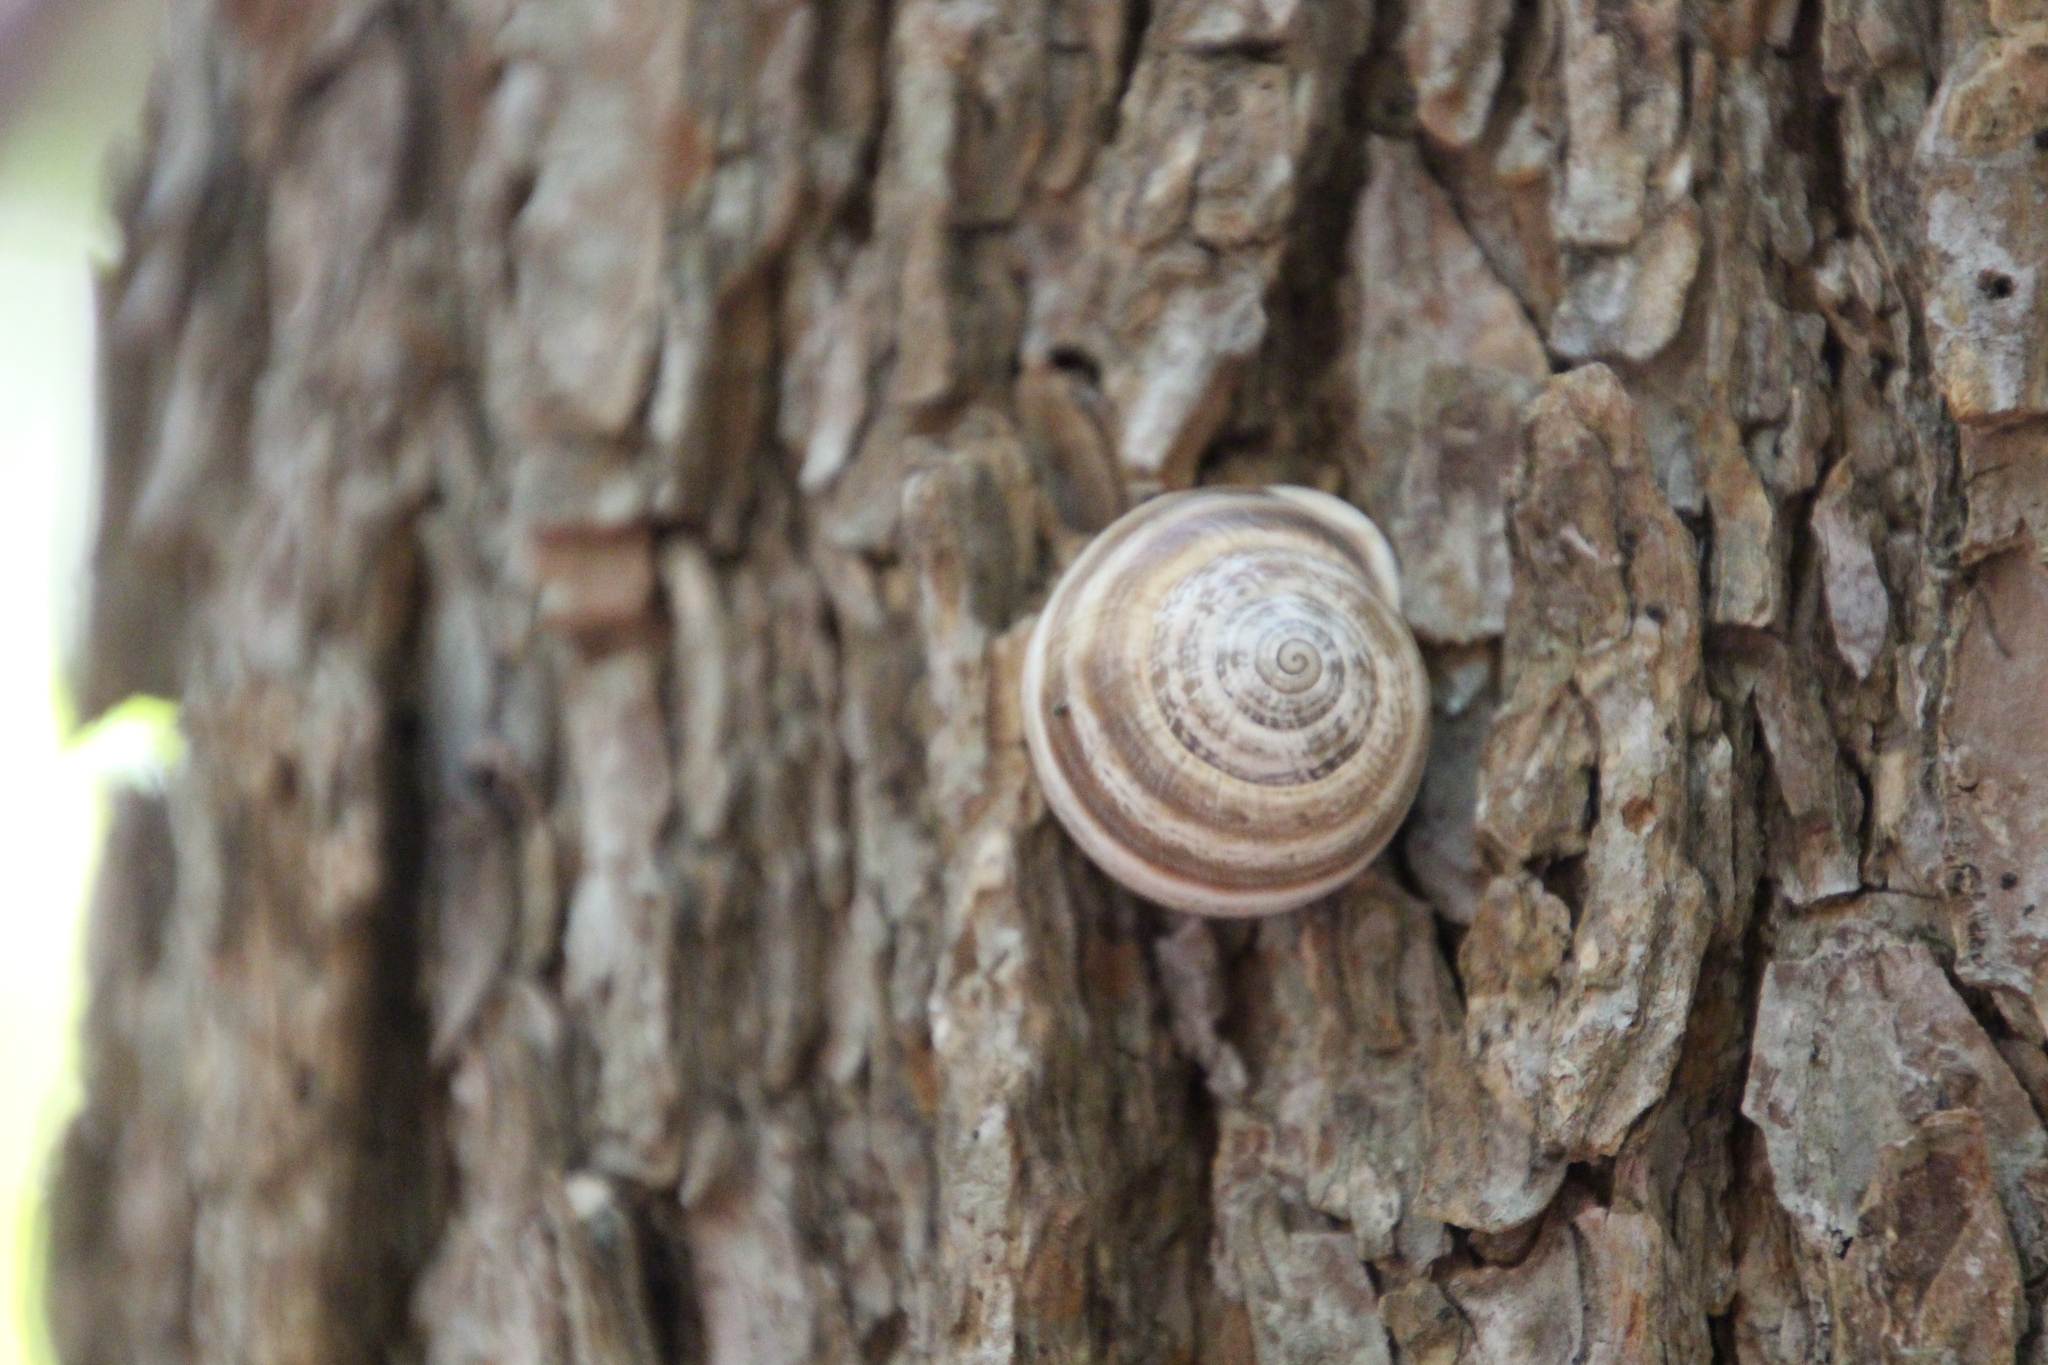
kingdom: Animalia
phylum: Mollusca
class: Gastropoda
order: Stylommatophora
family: Helicidae
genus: Otala
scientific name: Otala lactea
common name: Milk snail
